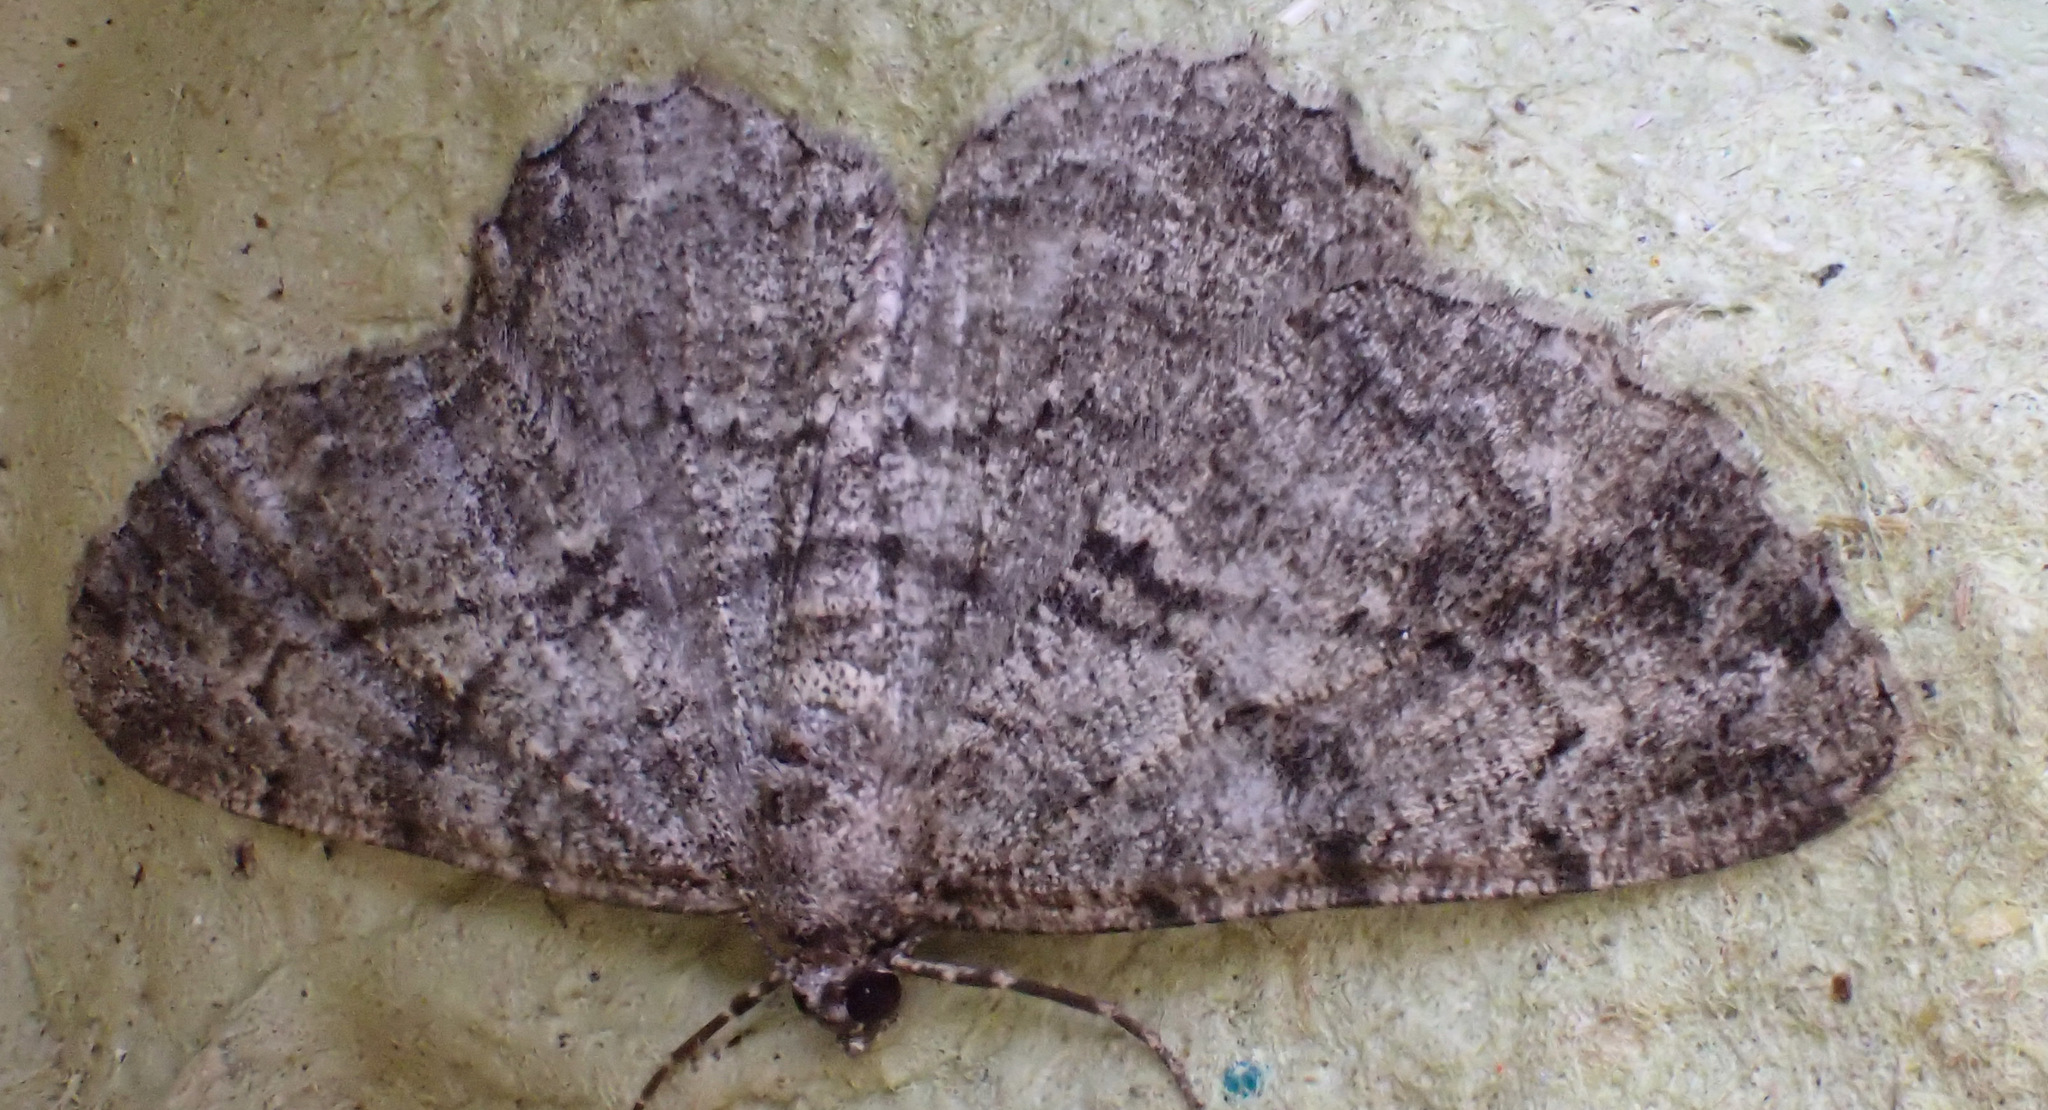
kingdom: Animalia
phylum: Arthropoda
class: Insecta
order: Lepidoptera
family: Geometridae
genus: Peribatodes
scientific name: Peribatodes rhomboidaria
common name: Willow beauty
